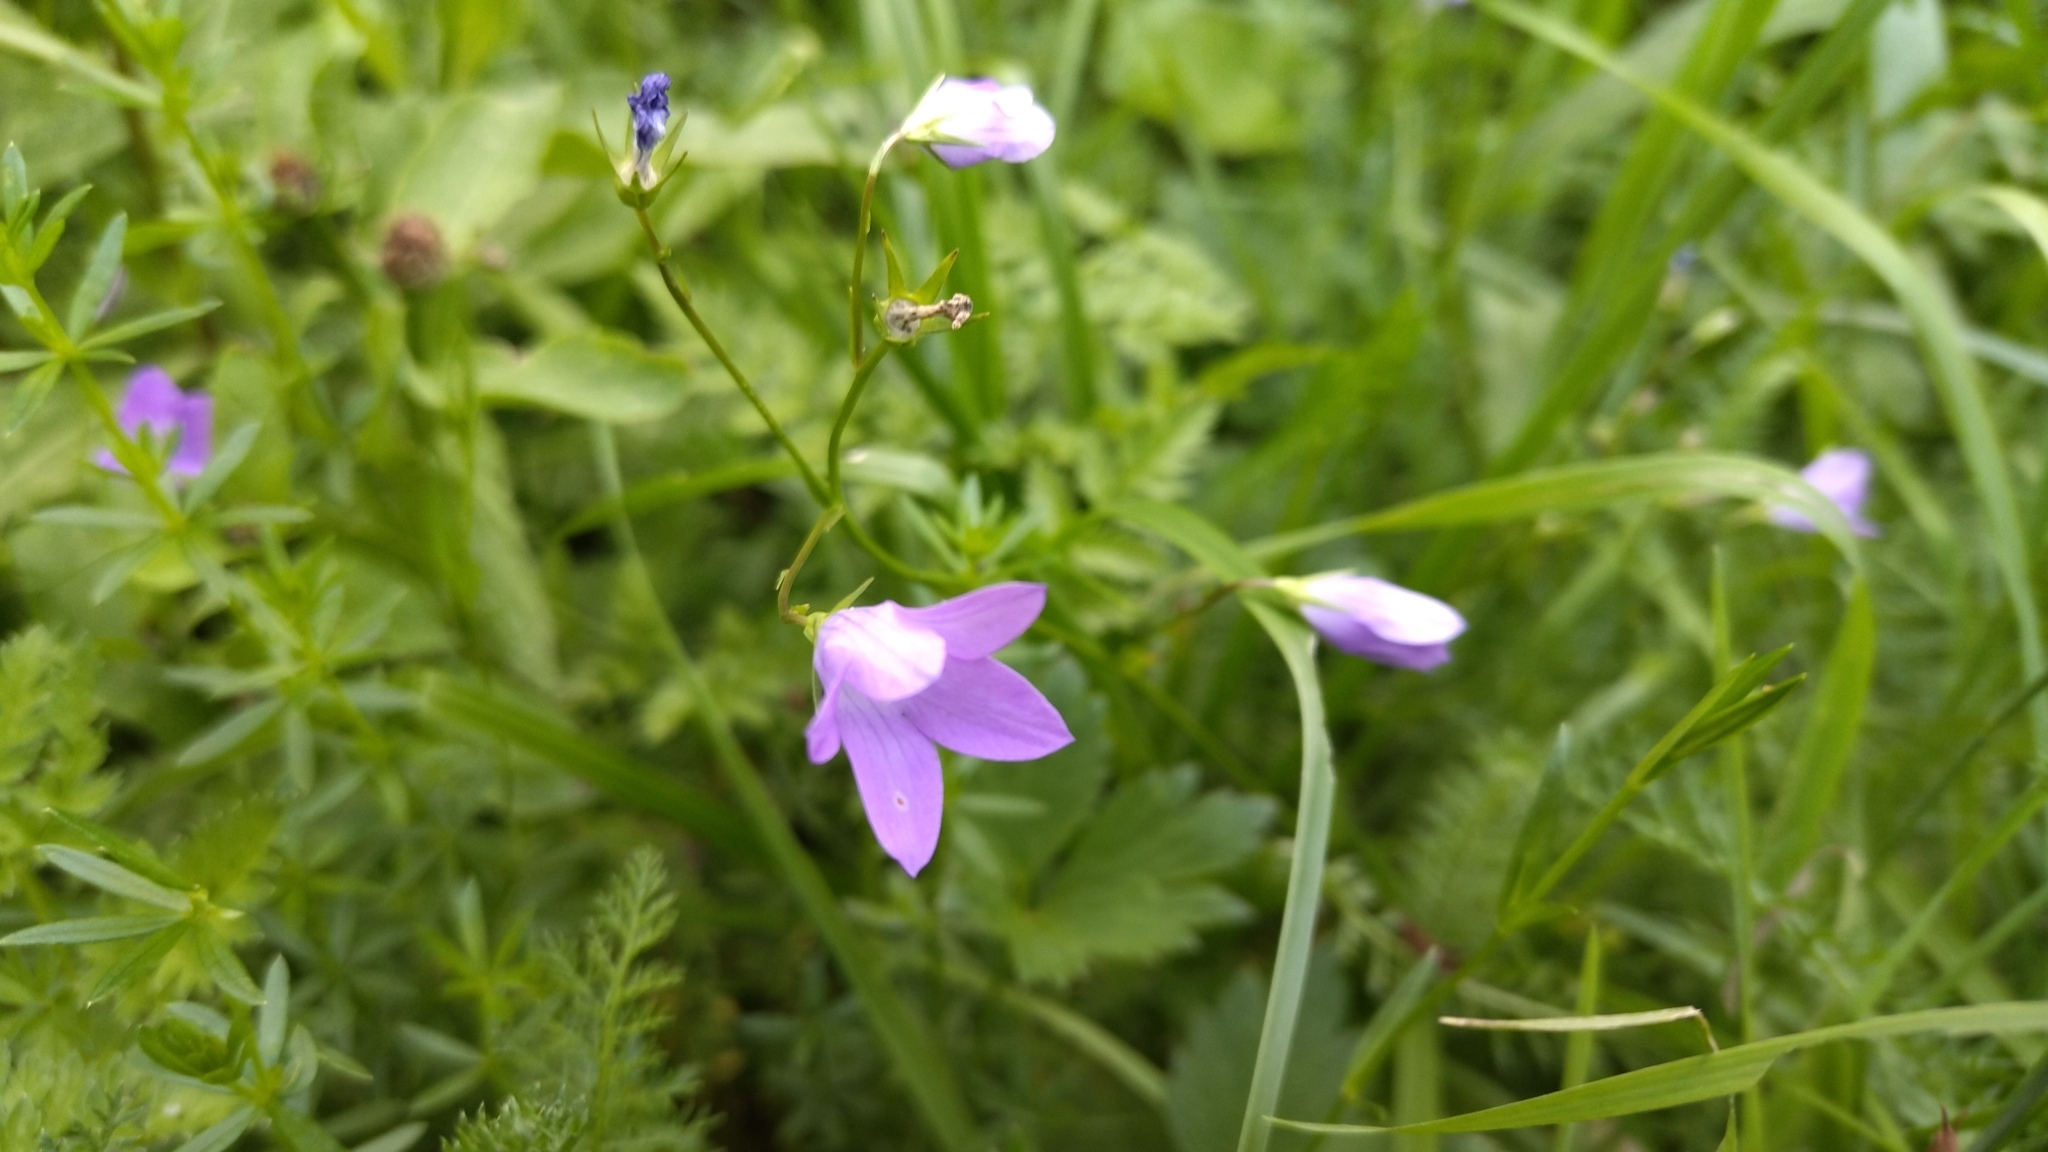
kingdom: Plantae
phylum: Tracheophyta
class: Magnoliopsida
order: Asterales
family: Campanulaceae
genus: Campanula
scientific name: Campanula patula
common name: Spreading bellflower
